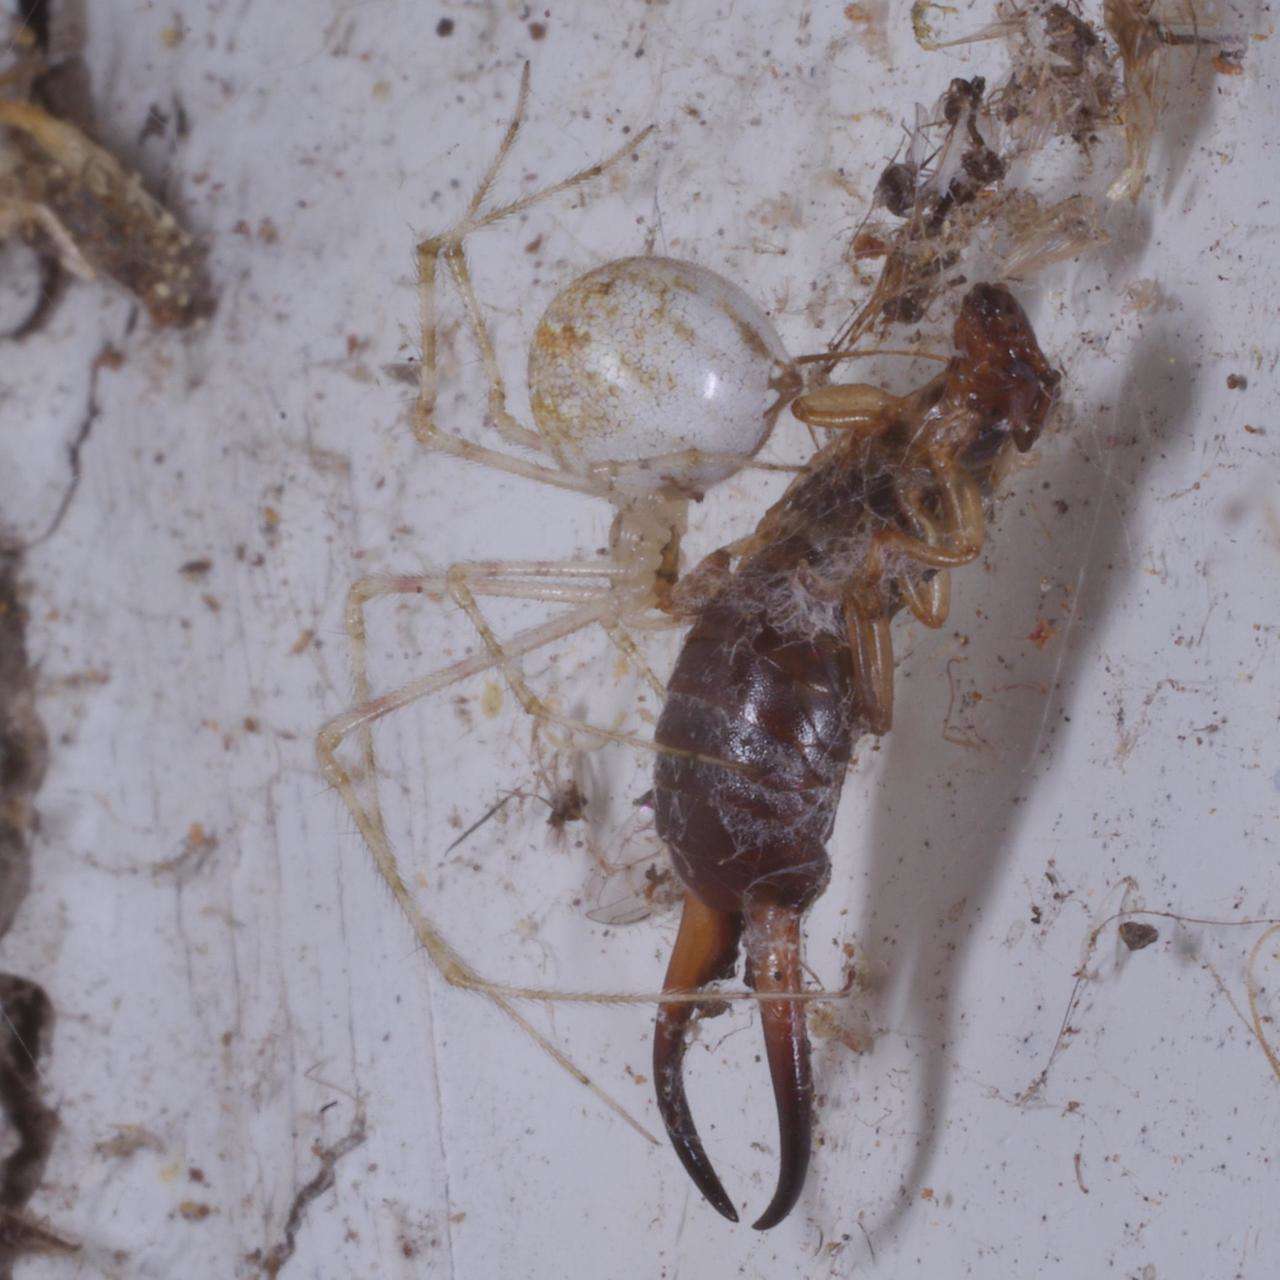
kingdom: Animalia
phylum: Arthropoda
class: Arachnida
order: Araneae
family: Theridiidae
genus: Cryptachaea
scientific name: Cryptachaea gigantipes
